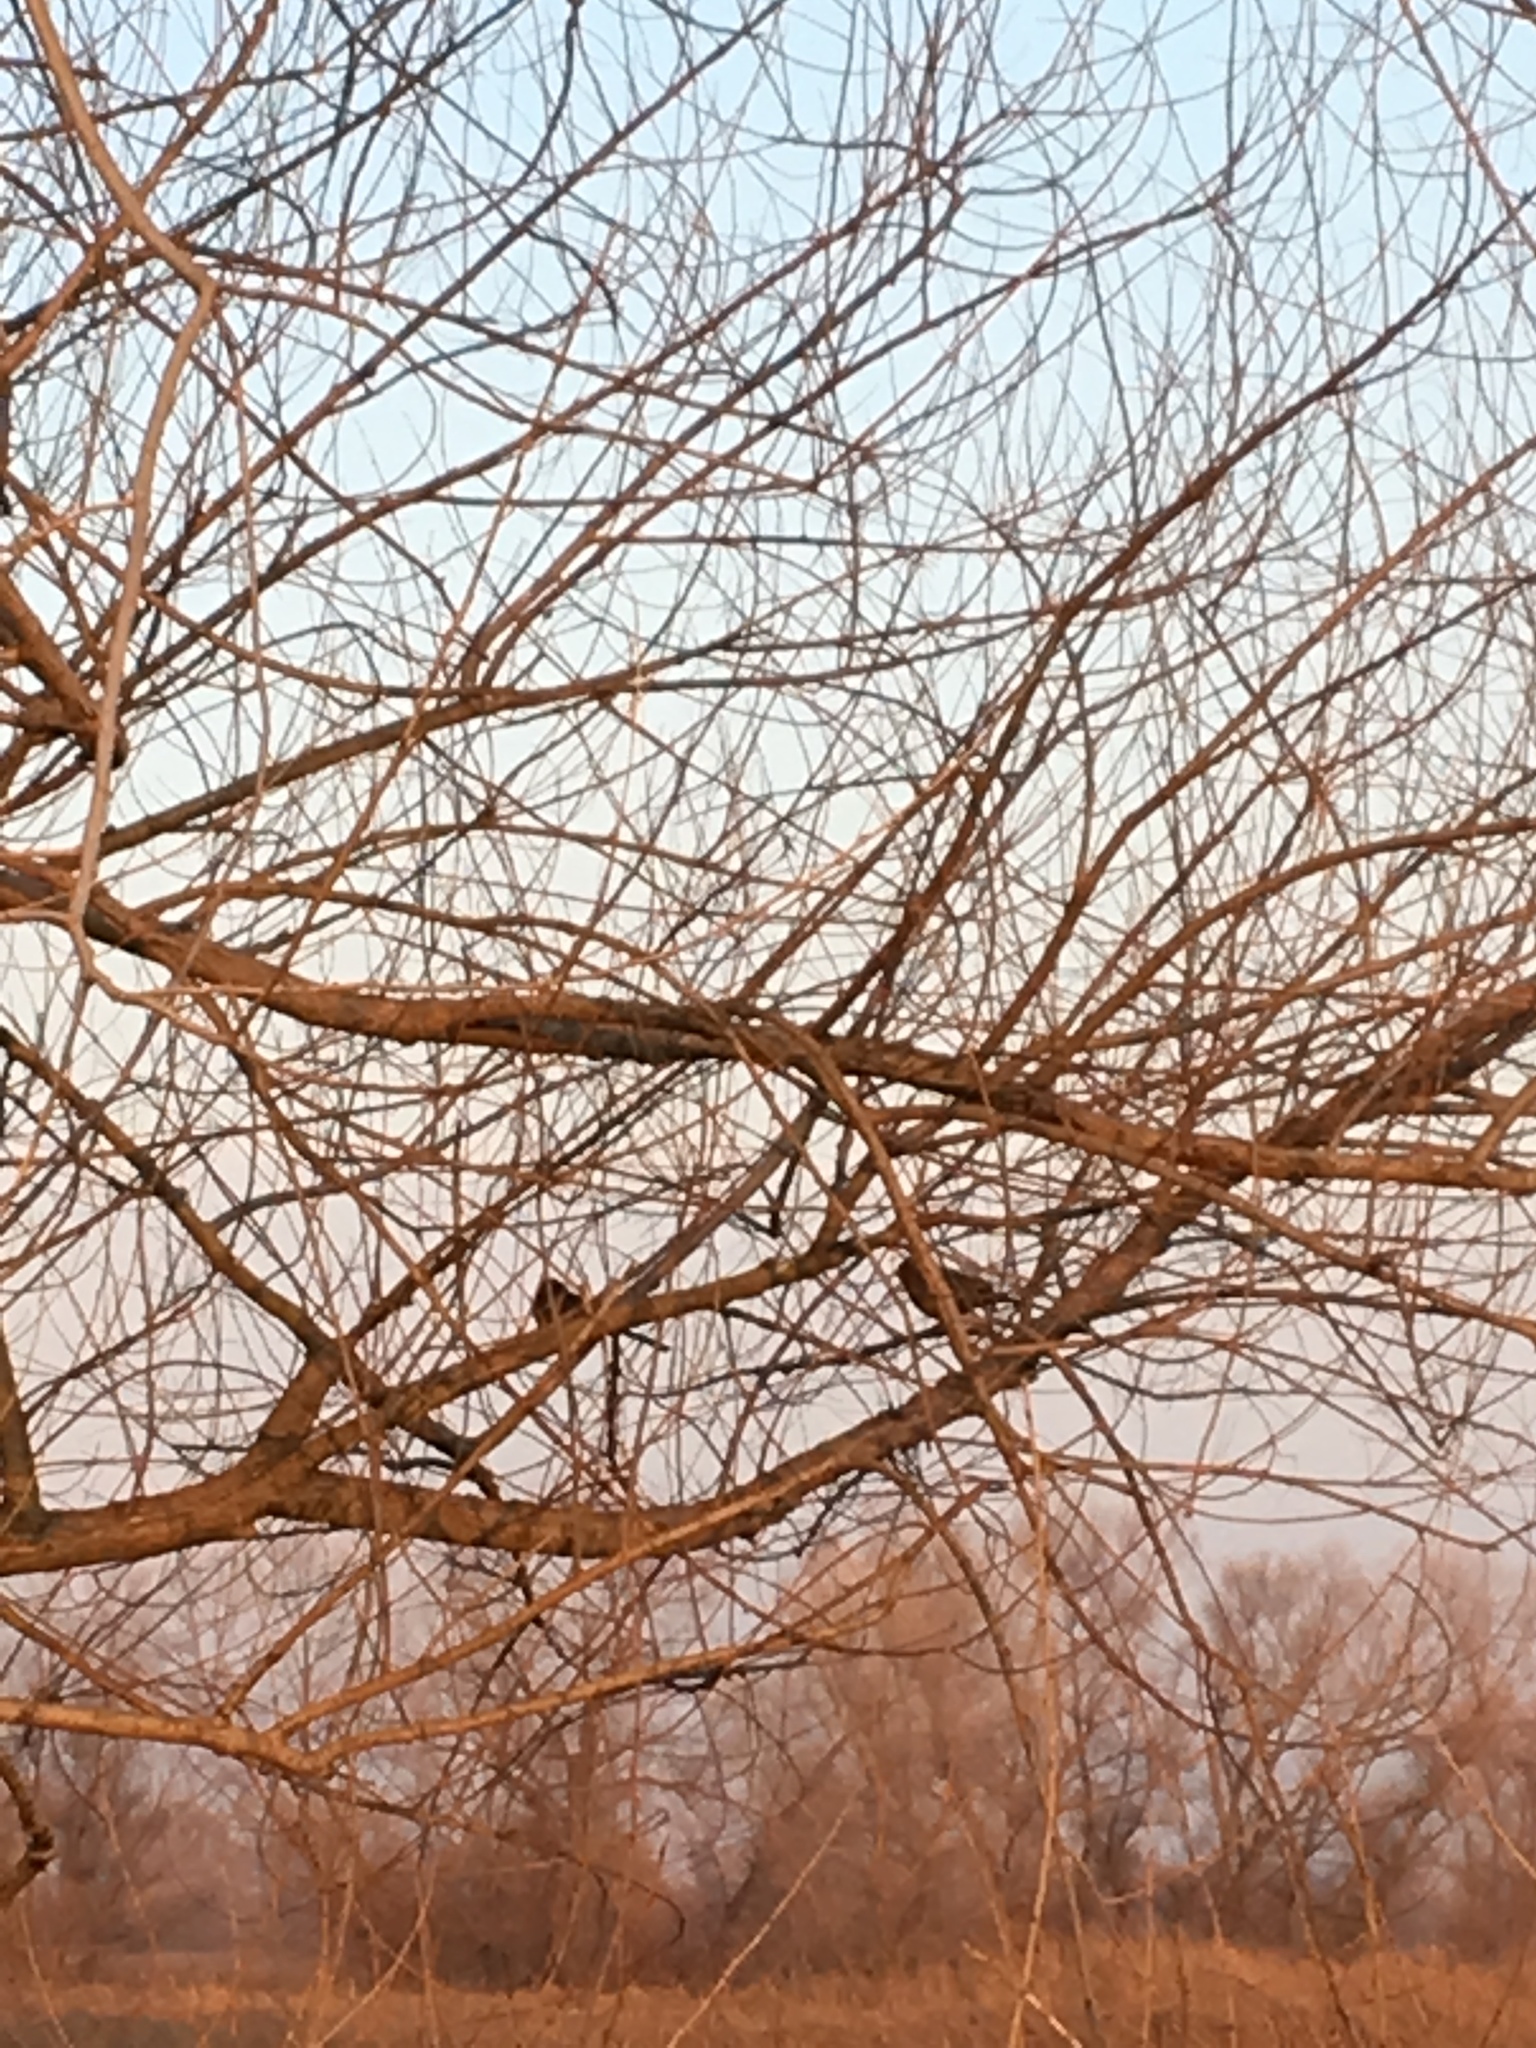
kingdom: Animalia
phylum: Chordata
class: Aves
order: Passeriformes
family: Passerellidae
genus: Melozone
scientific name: Melozone crissalis
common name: California towhee
